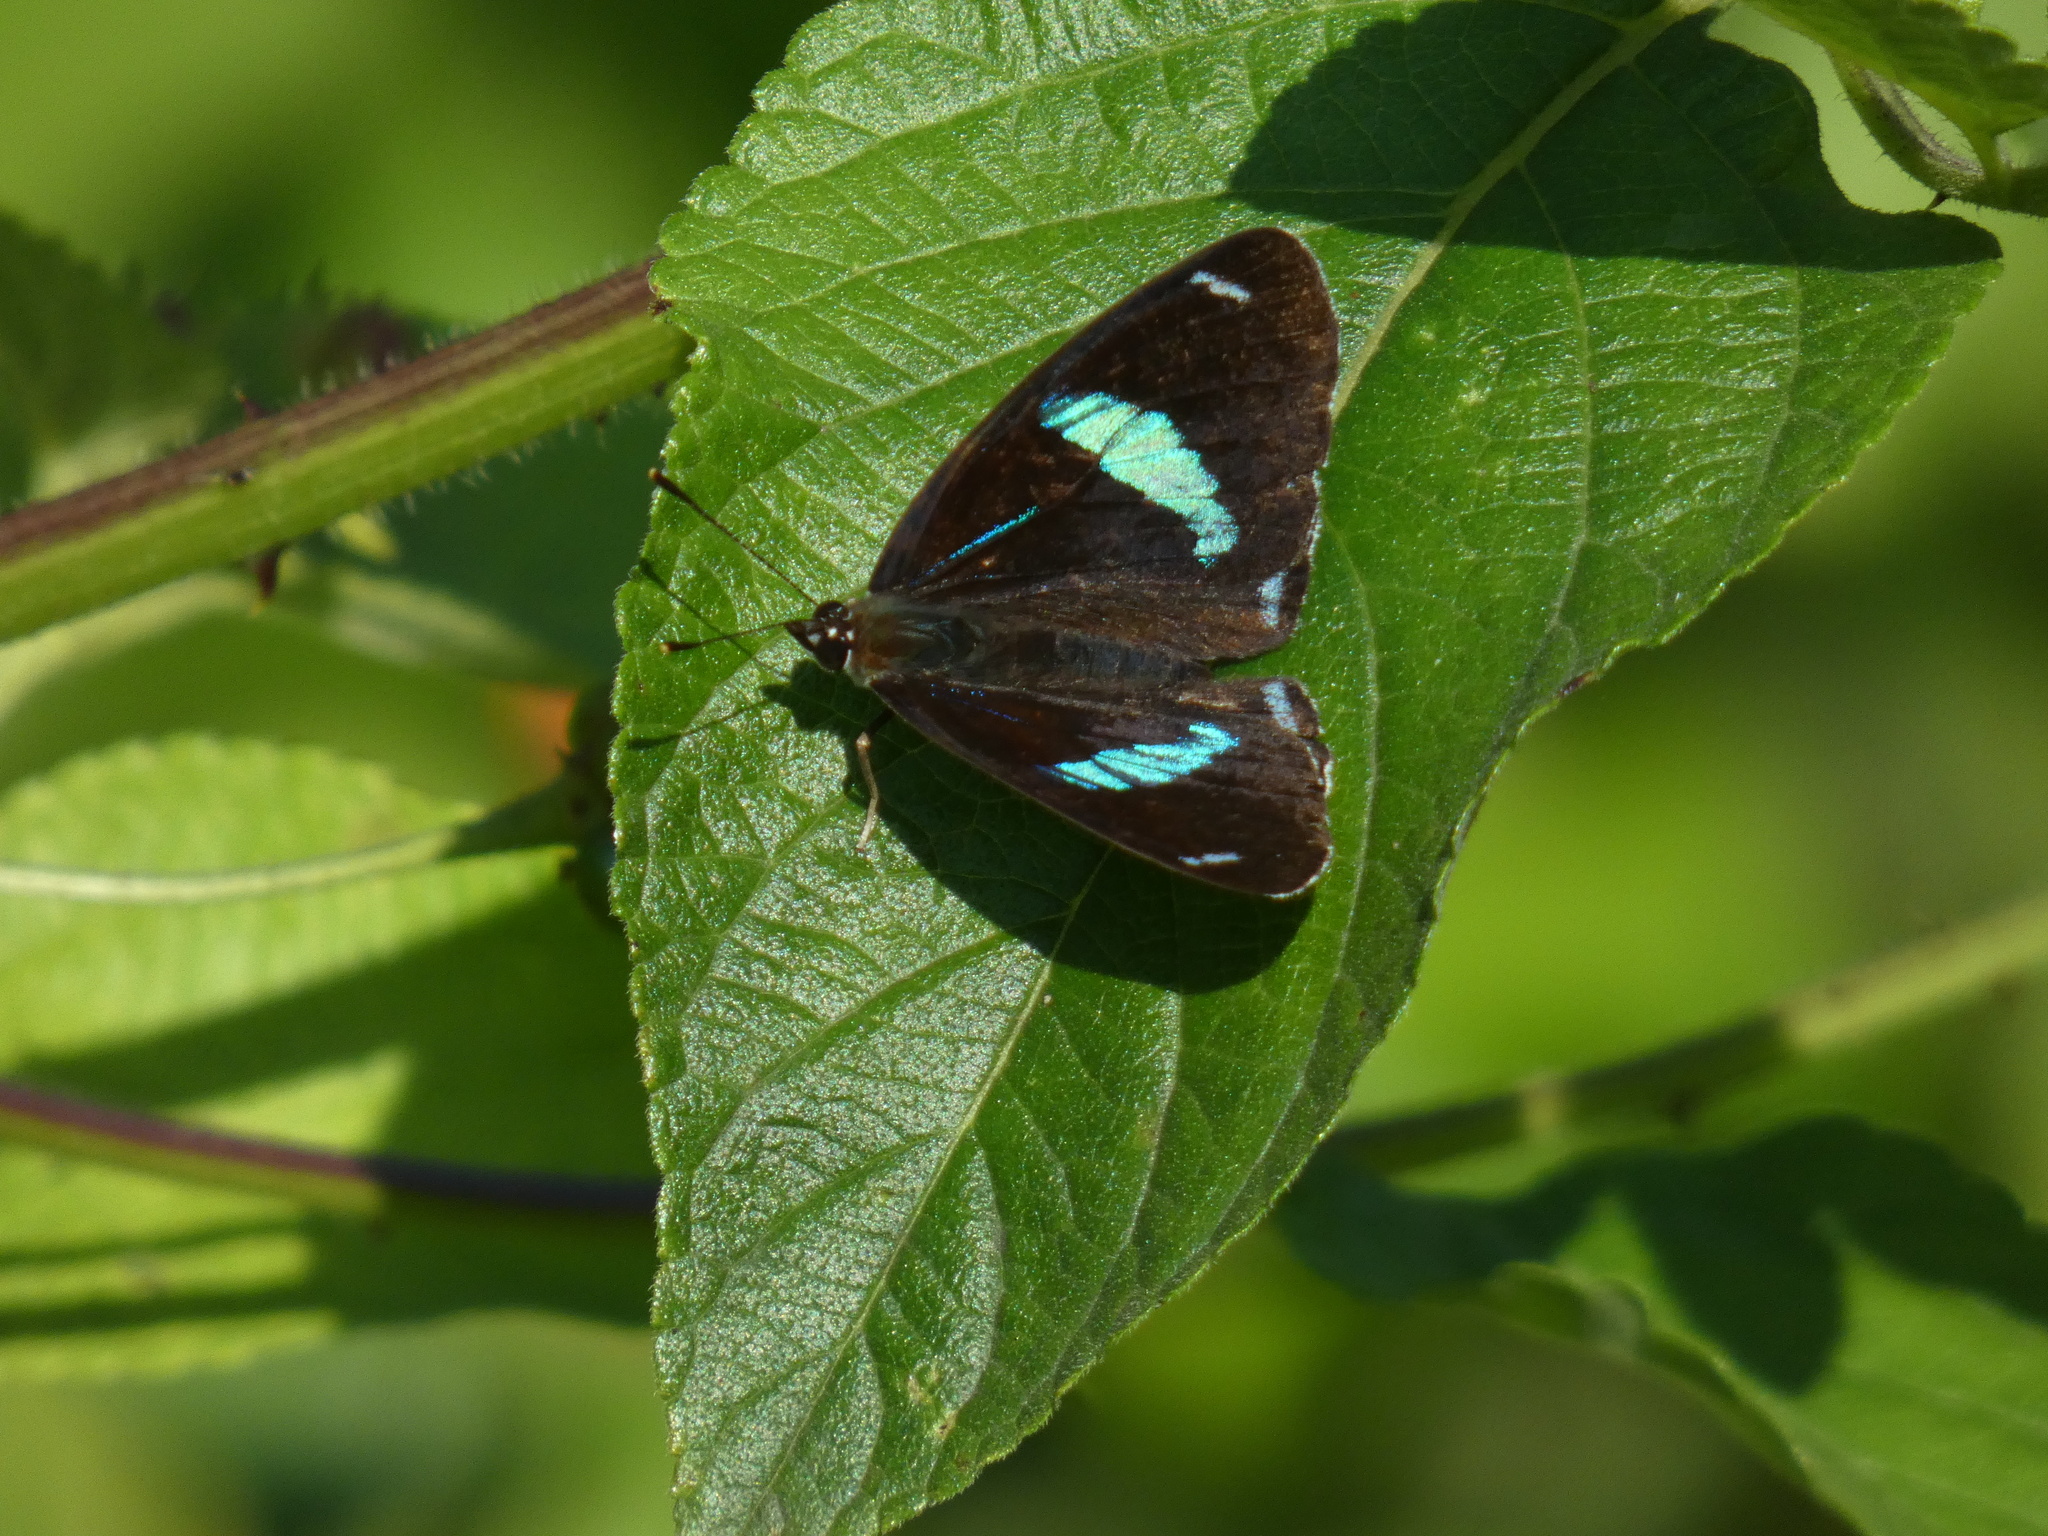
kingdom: Animalia
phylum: Arthropoda
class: Insecta
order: Lepidoptera
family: Nymphalidae
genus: Diaethria
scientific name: Diaethria clymena
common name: Widespread eighty-eight
